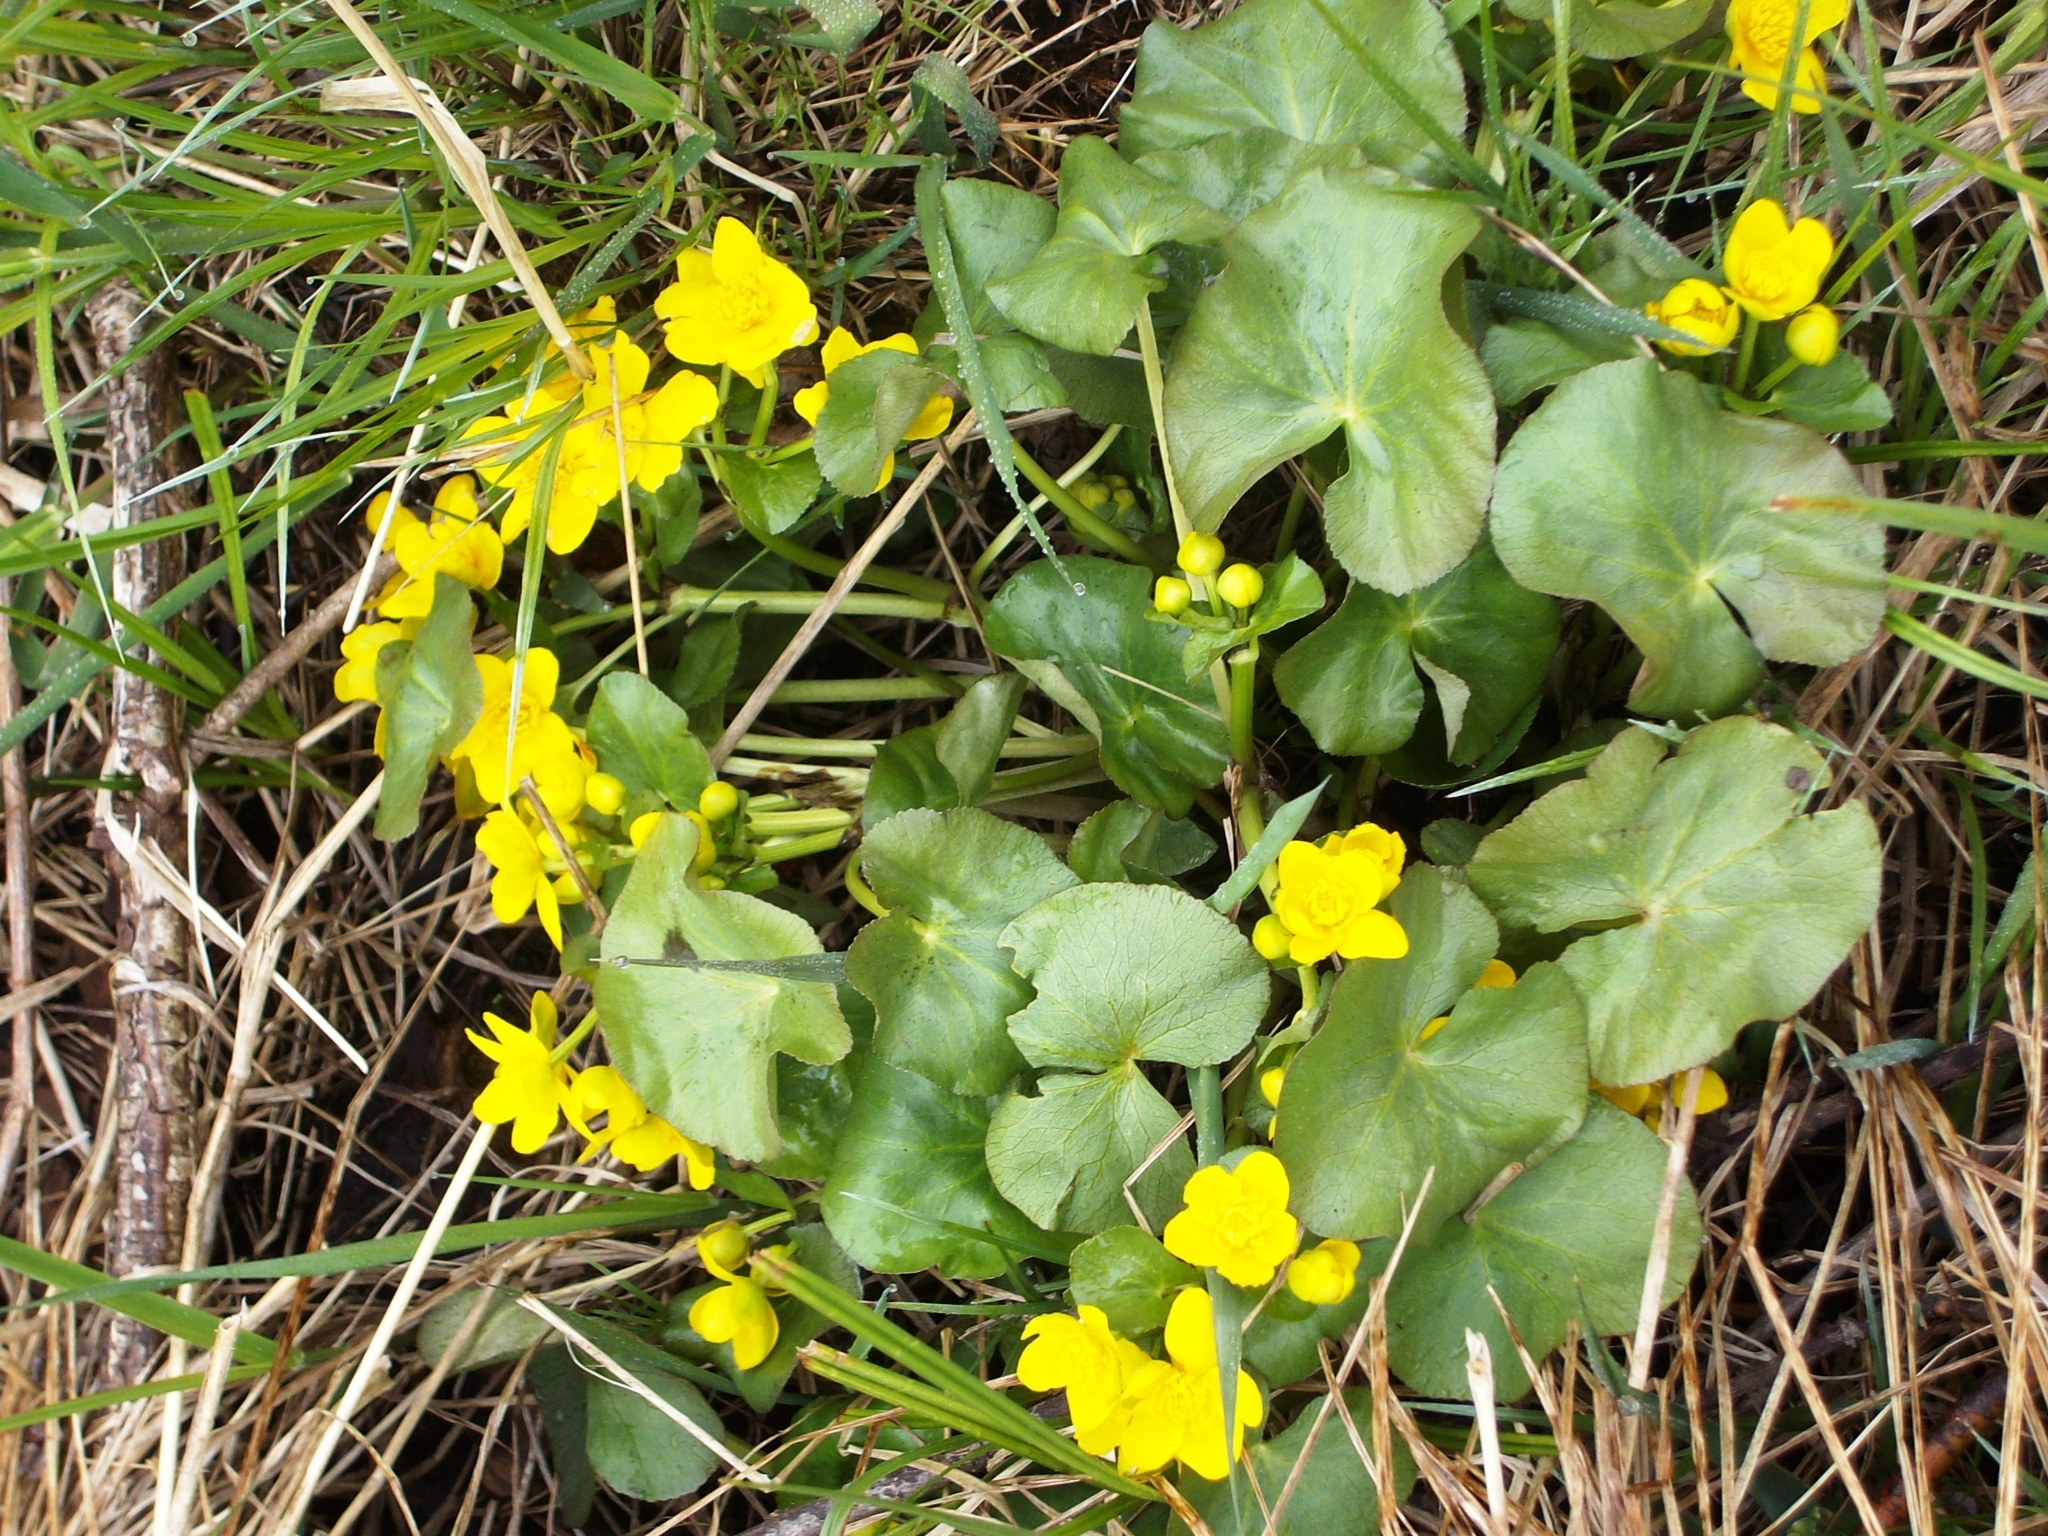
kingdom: Plantae
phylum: Tracheophyta
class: Magnoliopsida
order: Ranunculales
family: Ranunculaceae
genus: Caltha
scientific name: Caltha palustris
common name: Marsh marigold
